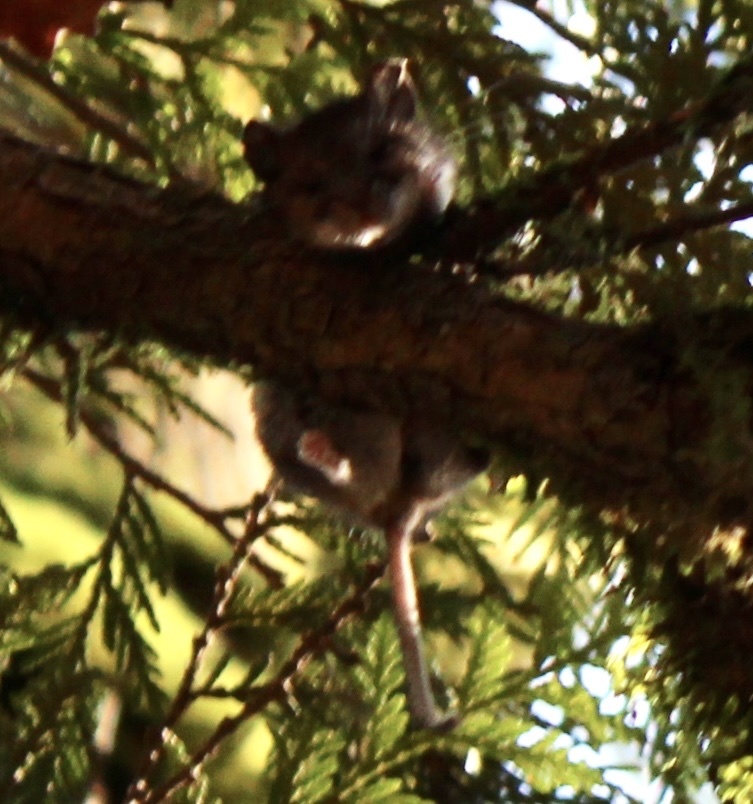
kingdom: Animalia
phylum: Chordata
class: Mammalia
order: Rodentia
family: Cricetidae
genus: Peromyscus
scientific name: Peromyscus maniculatus
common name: Deer mouse
